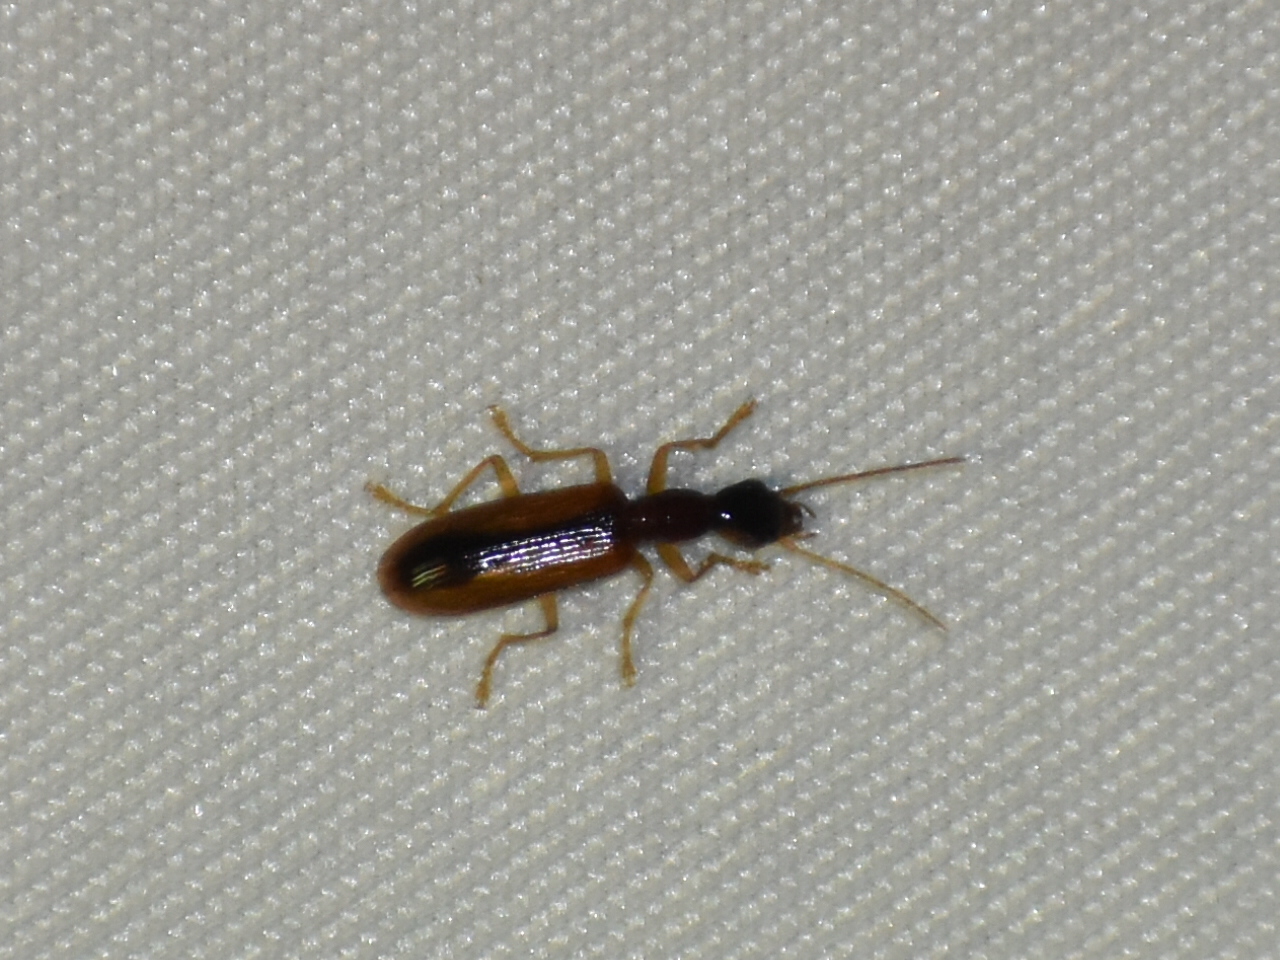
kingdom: Animalia
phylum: Arthropoda
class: Insecta
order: Coleoptera
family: Carabidae
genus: Leptotrachelus
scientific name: Leptotrachelus dorsalis
